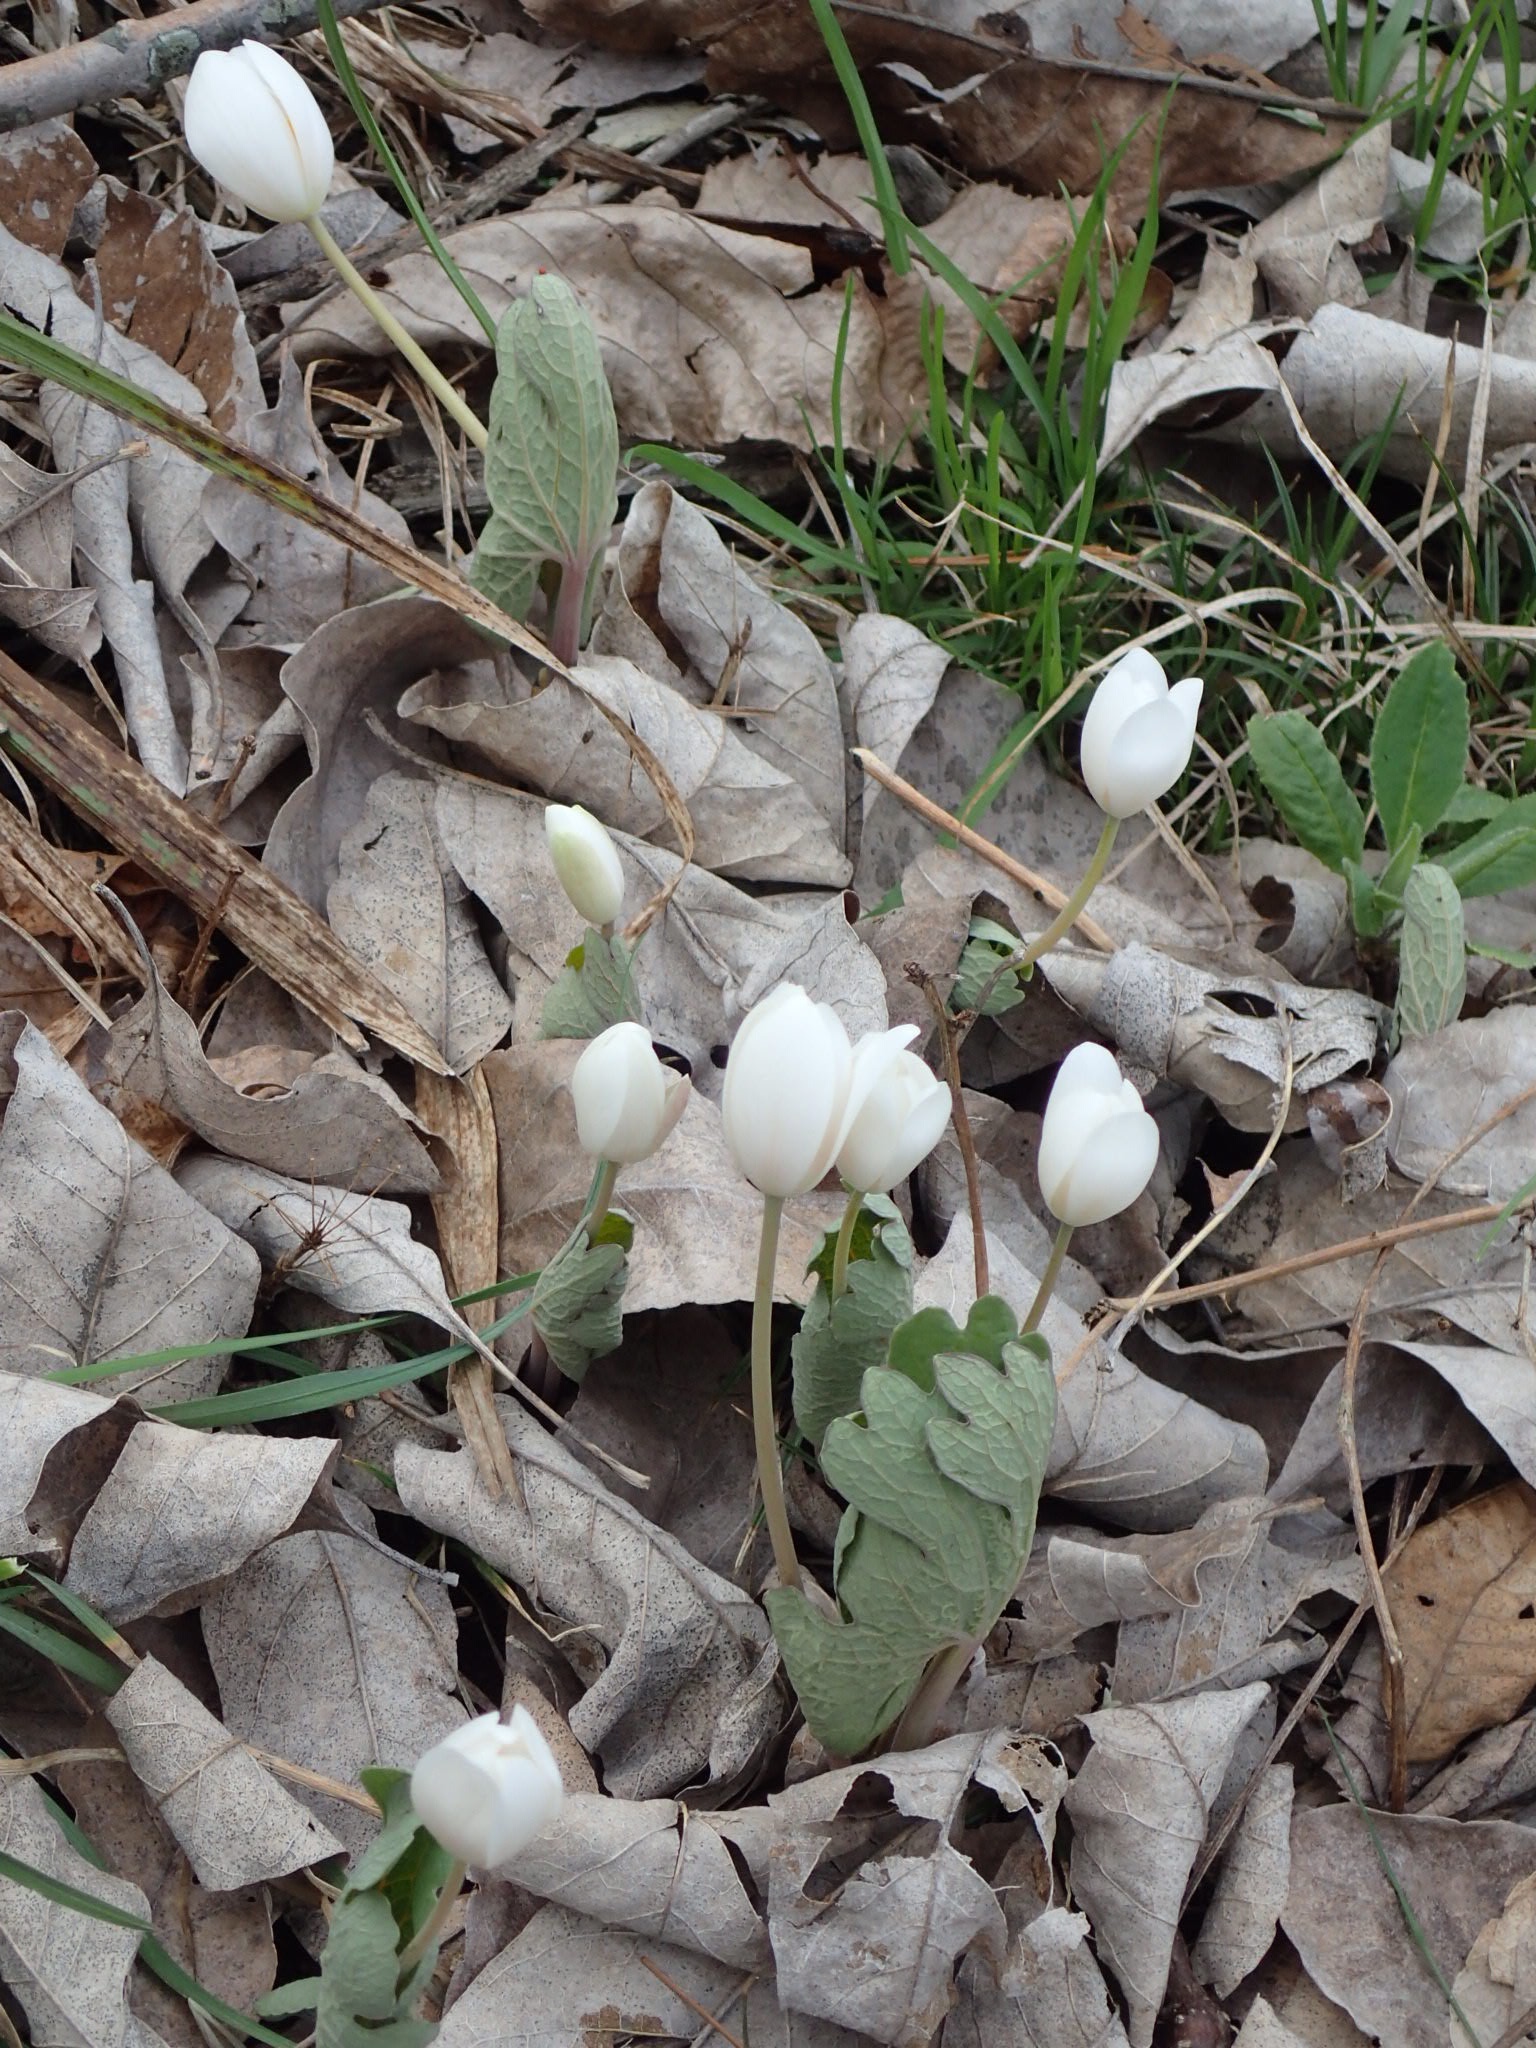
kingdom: Plantae
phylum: Tracheophyta
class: Magnoliopsida
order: Ranunculales
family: Papaveraceae
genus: Sanguinaria
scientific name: Sanguinaria canadensis
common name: Bloodroot
